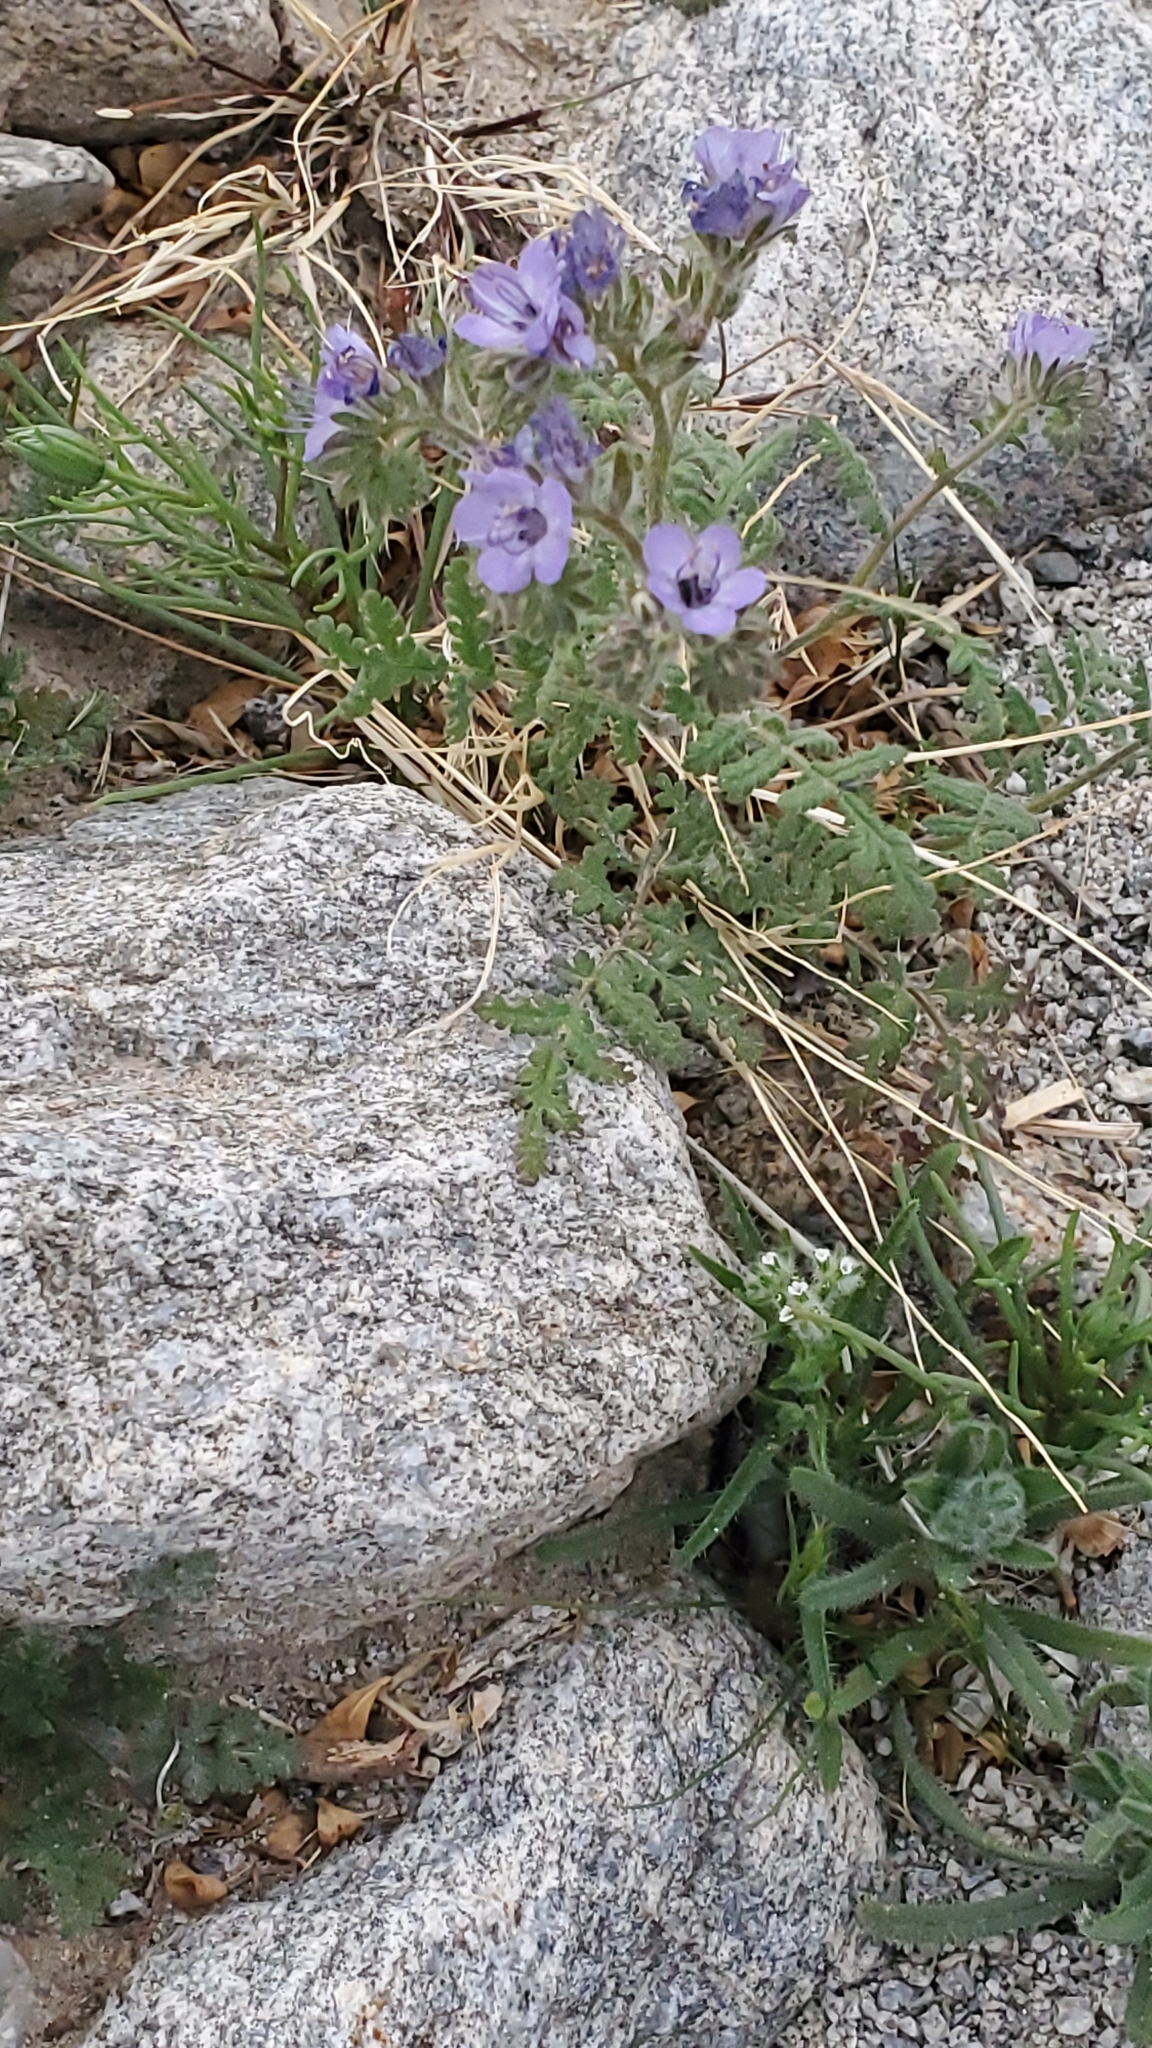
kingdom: Plantae
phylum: Tracheophyta
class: Magnoliopsida
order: Boraginales
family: Hydrophyllaceae
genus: Phacelia
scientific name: Phacelia distans
